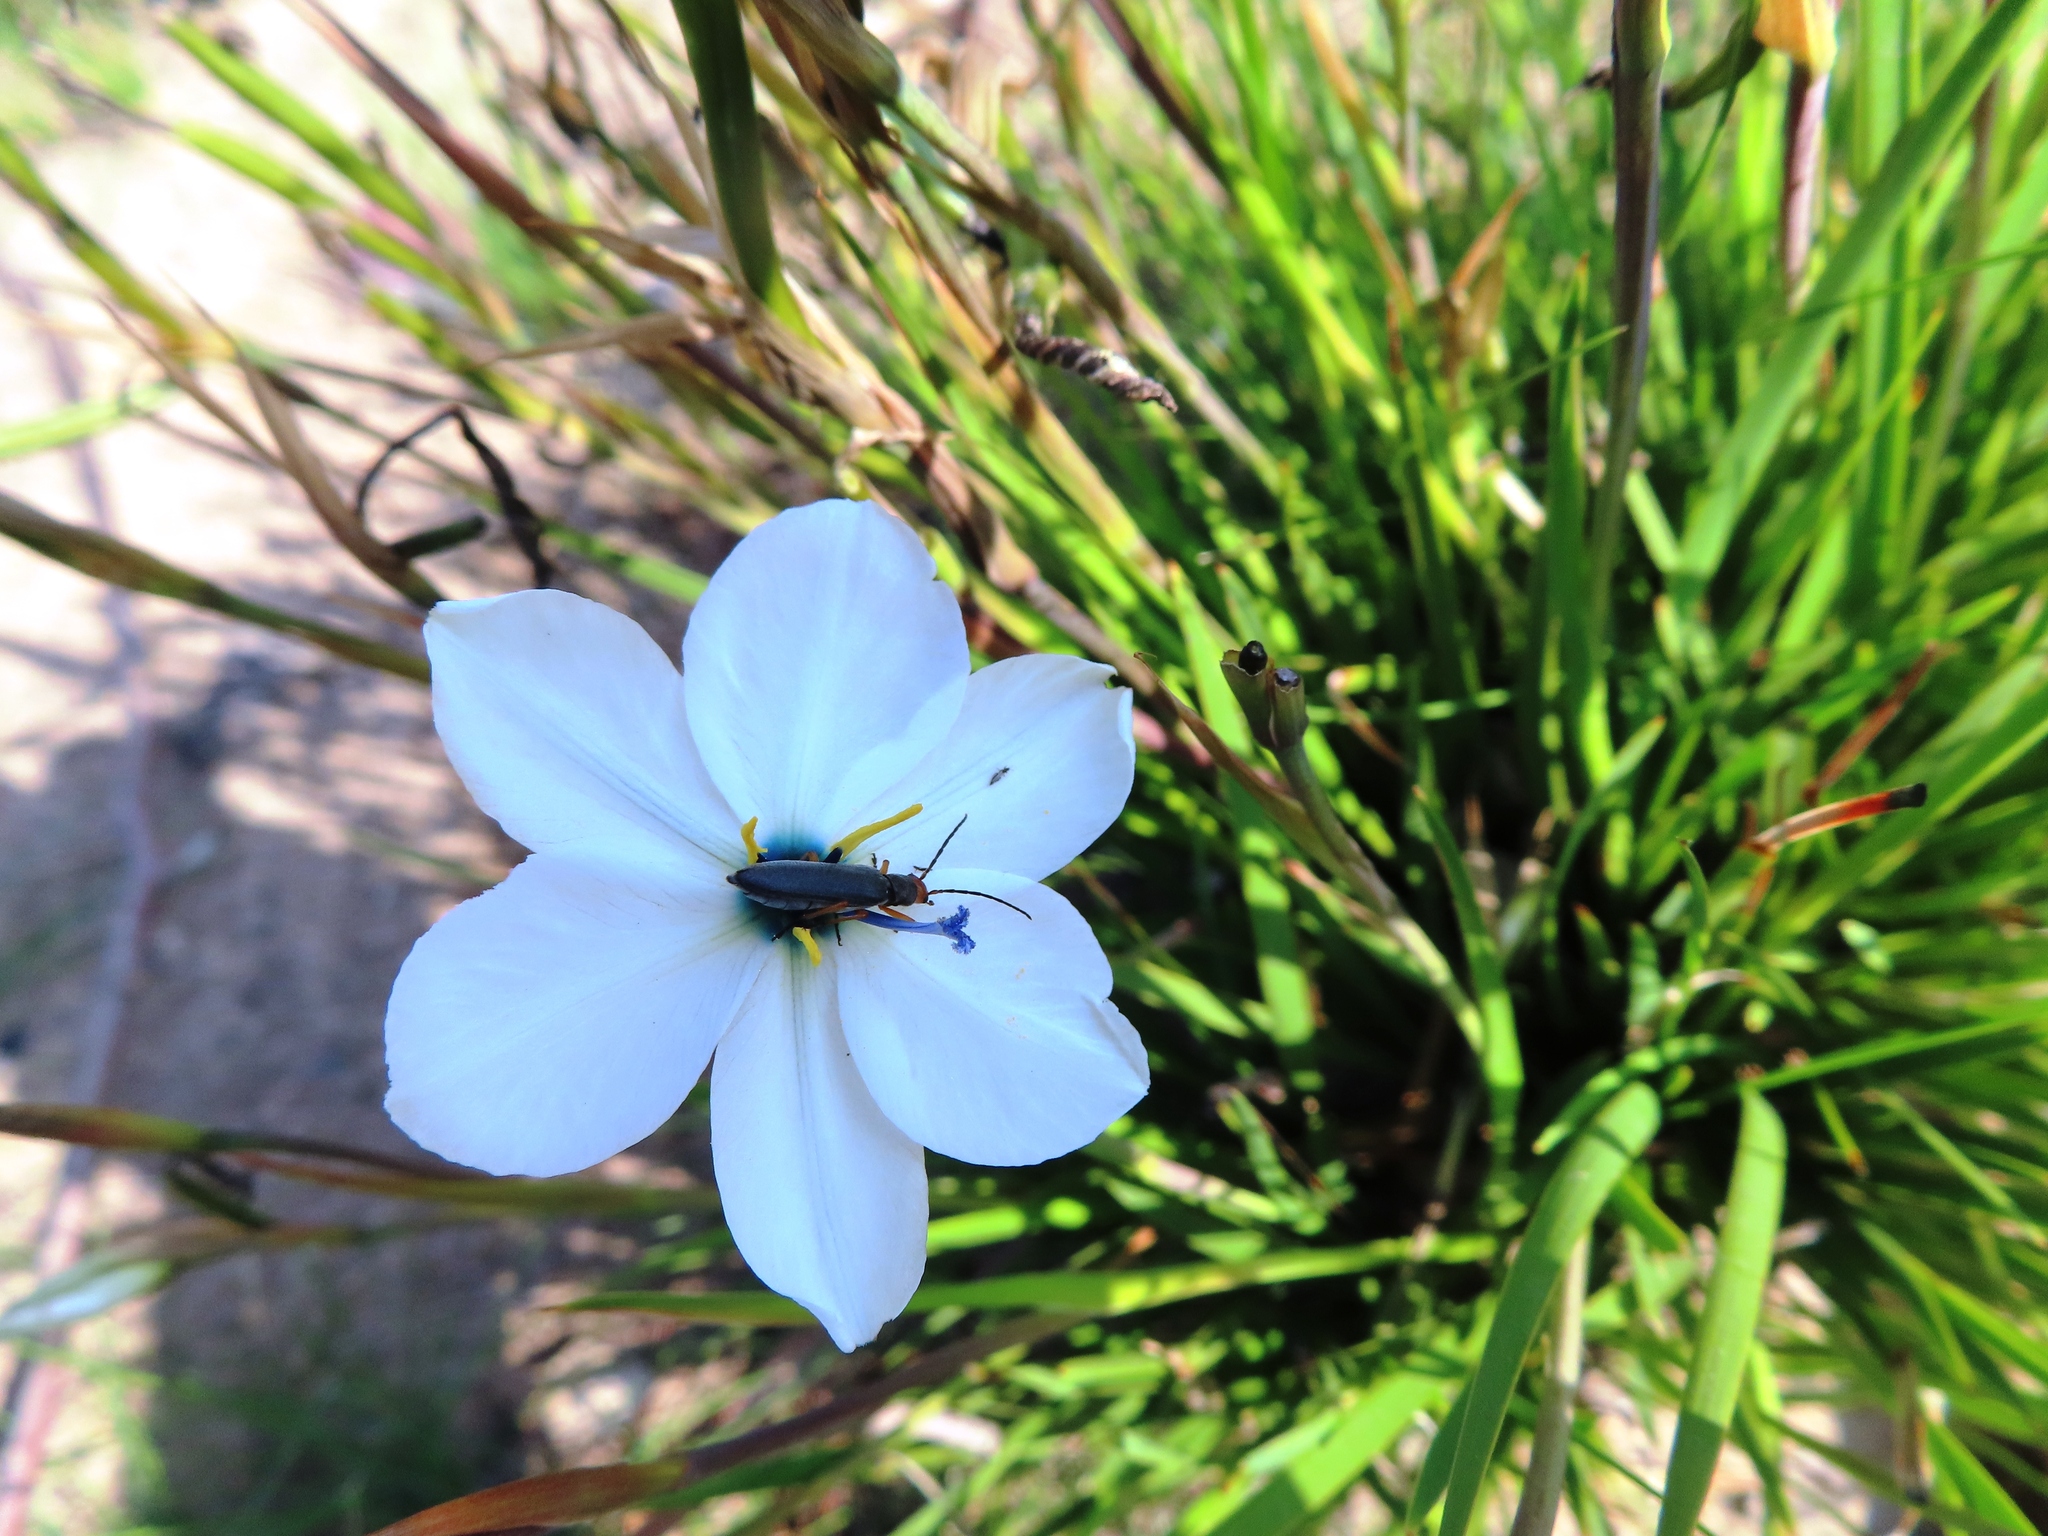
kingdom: Plantae
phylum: Tracheophyta
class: Liliopsida
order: Asparagales
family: Iridaceae
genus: Aristea
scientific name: Aristea cantharophila
